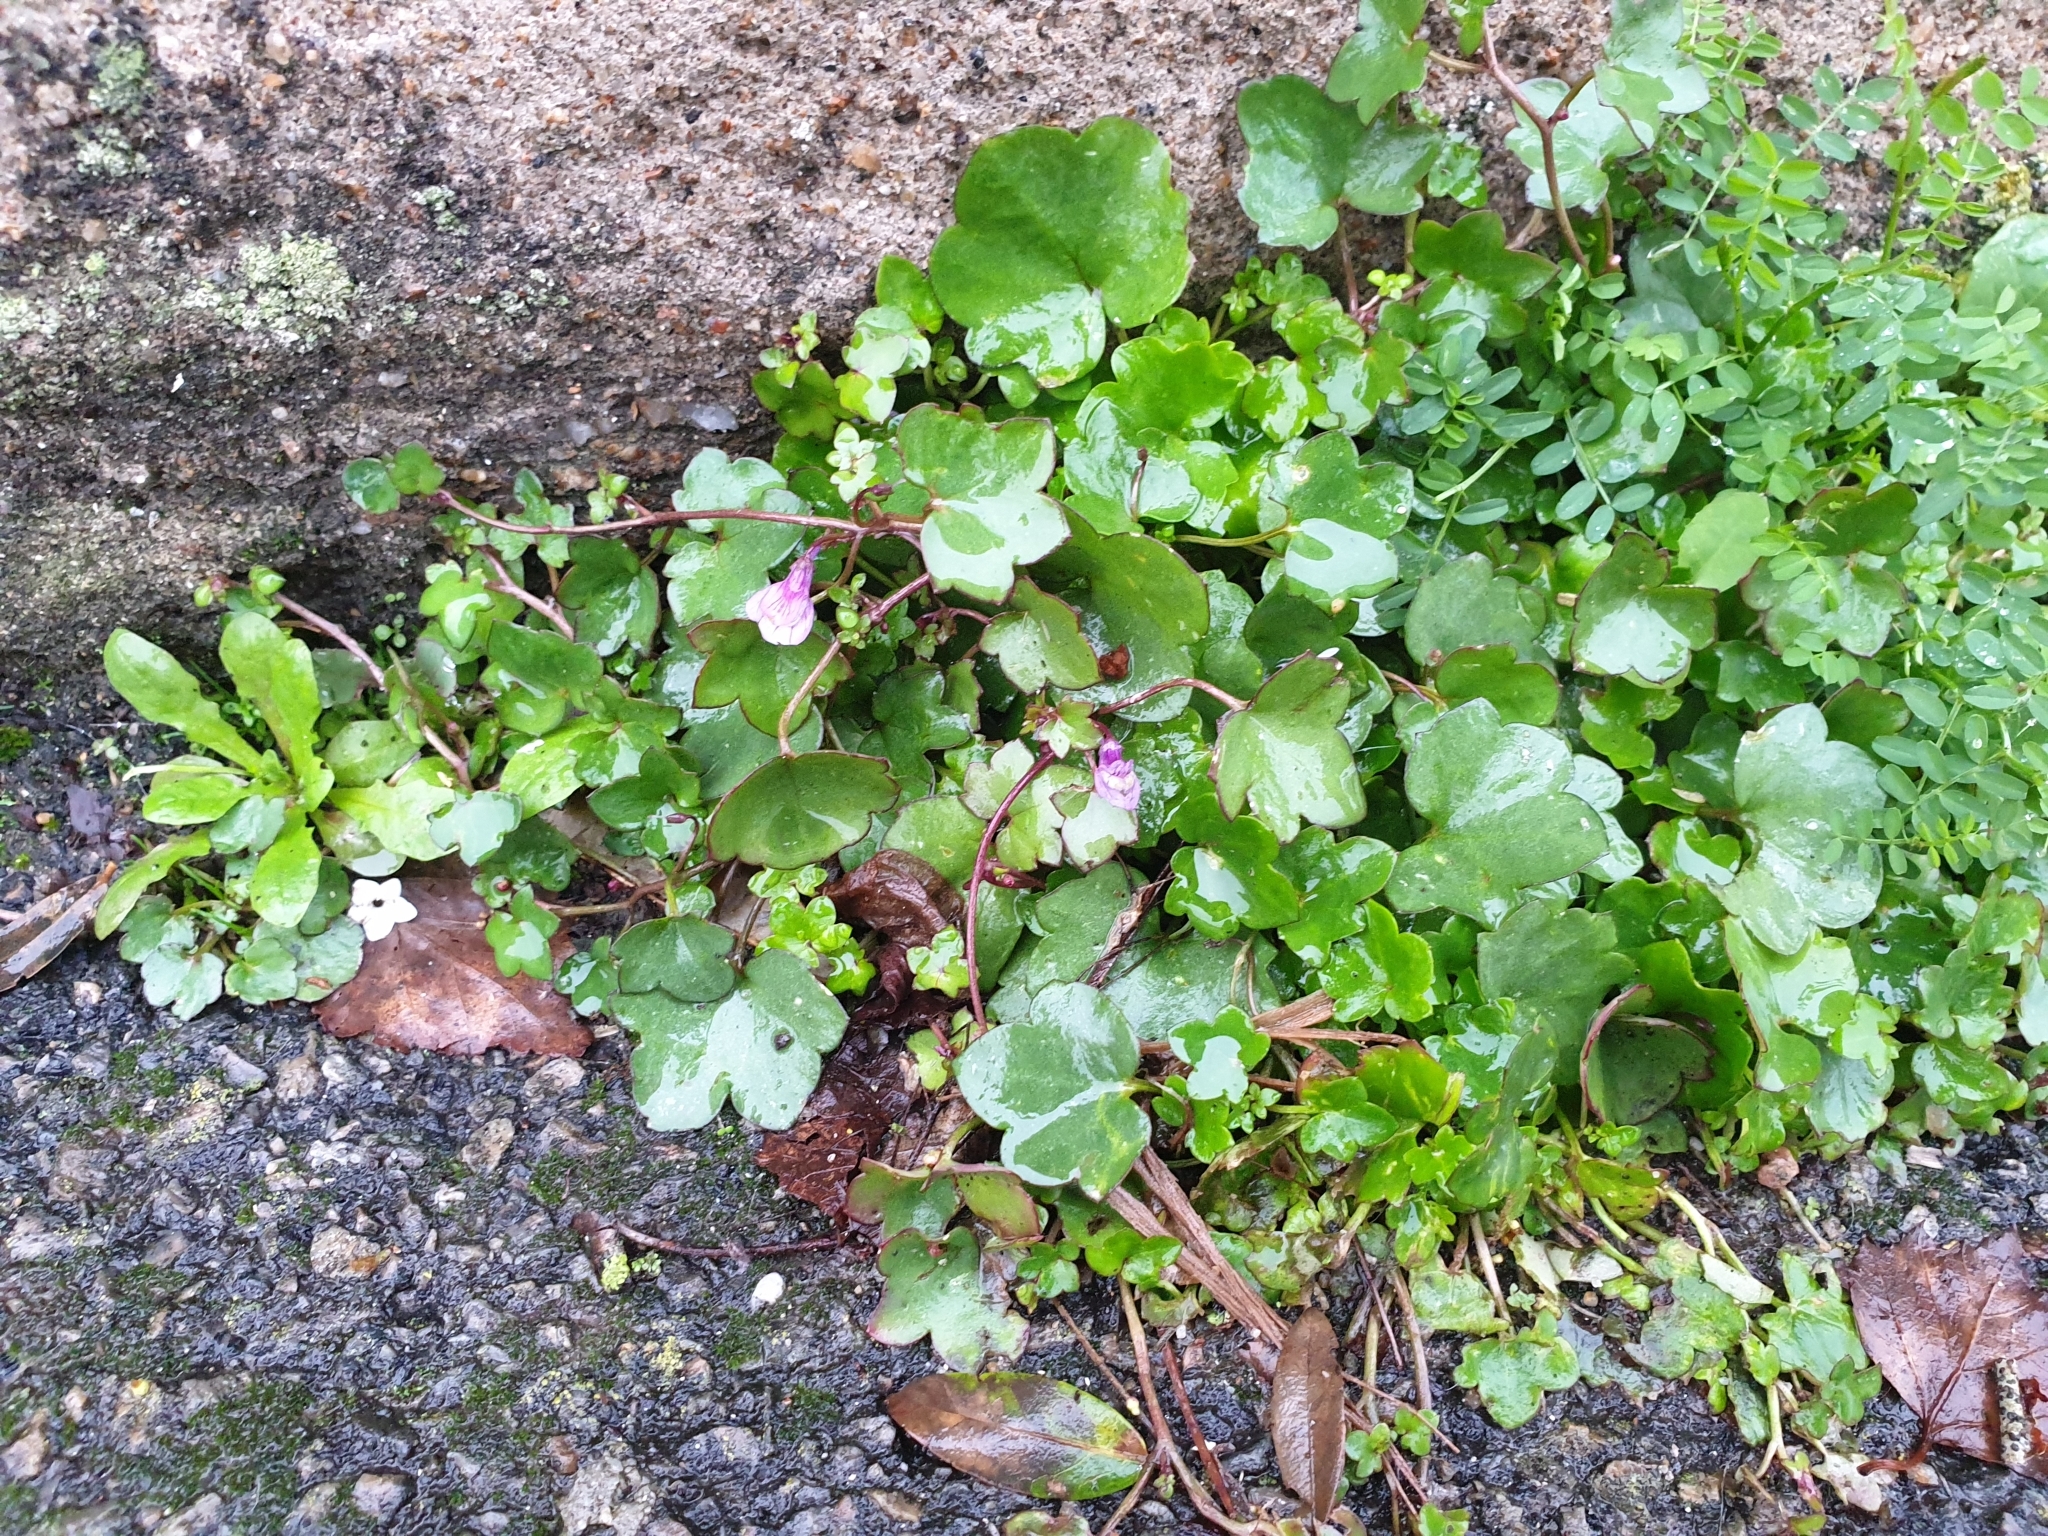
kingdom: Plantae
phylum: Tracheophyta
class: Magnoliopsida
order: Lamiales
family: Plantaginaceae
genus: Cymbalaria
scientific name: Cymbalaria muralis
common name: Ivy-leaved toadflax
